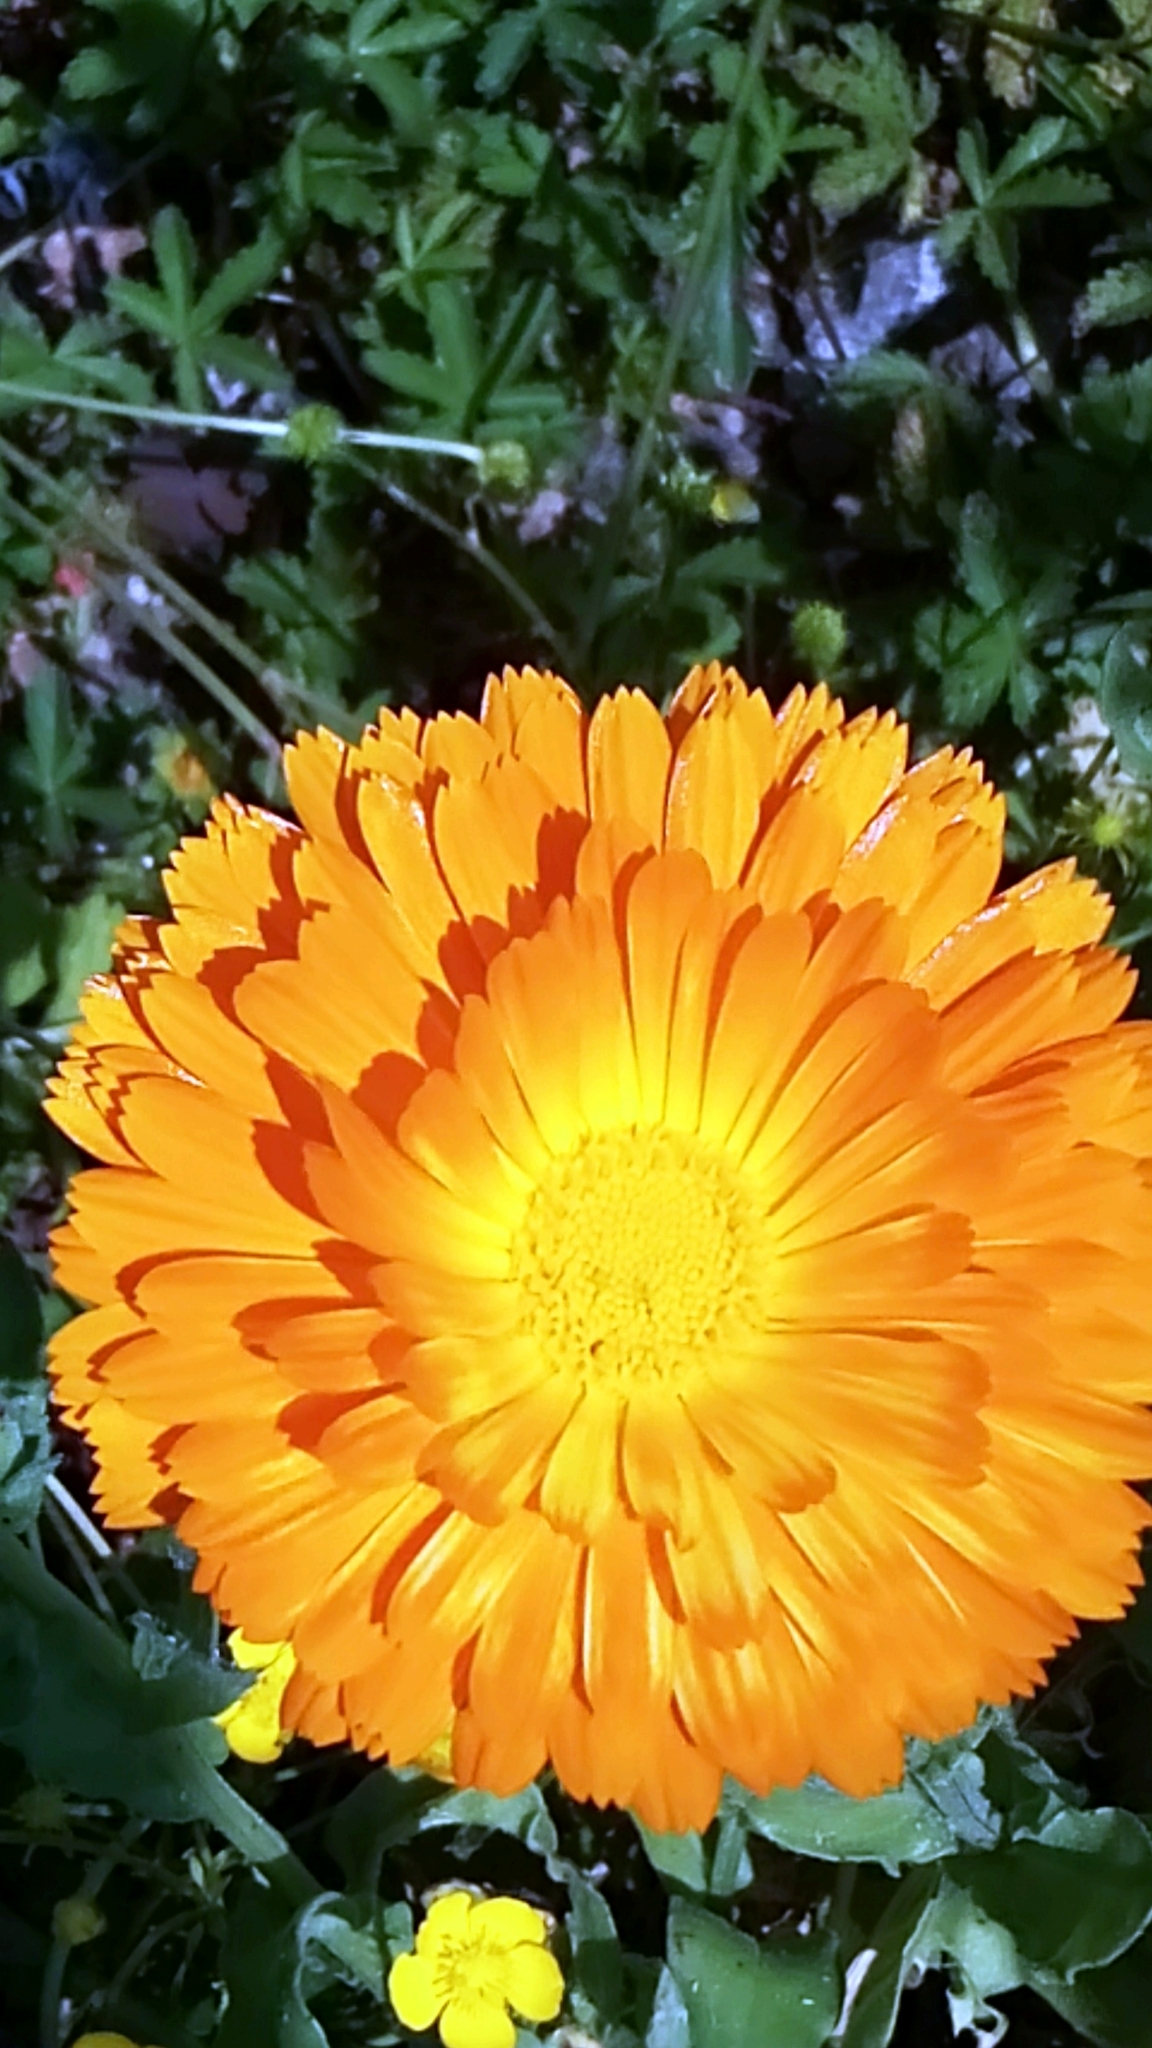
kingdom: Plantae
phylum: Tracheophyta
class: Magnoliopsida
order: Asterales
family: Asteraceae
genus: Calendula
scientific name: Calendula officinalis
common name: Pot marigold
